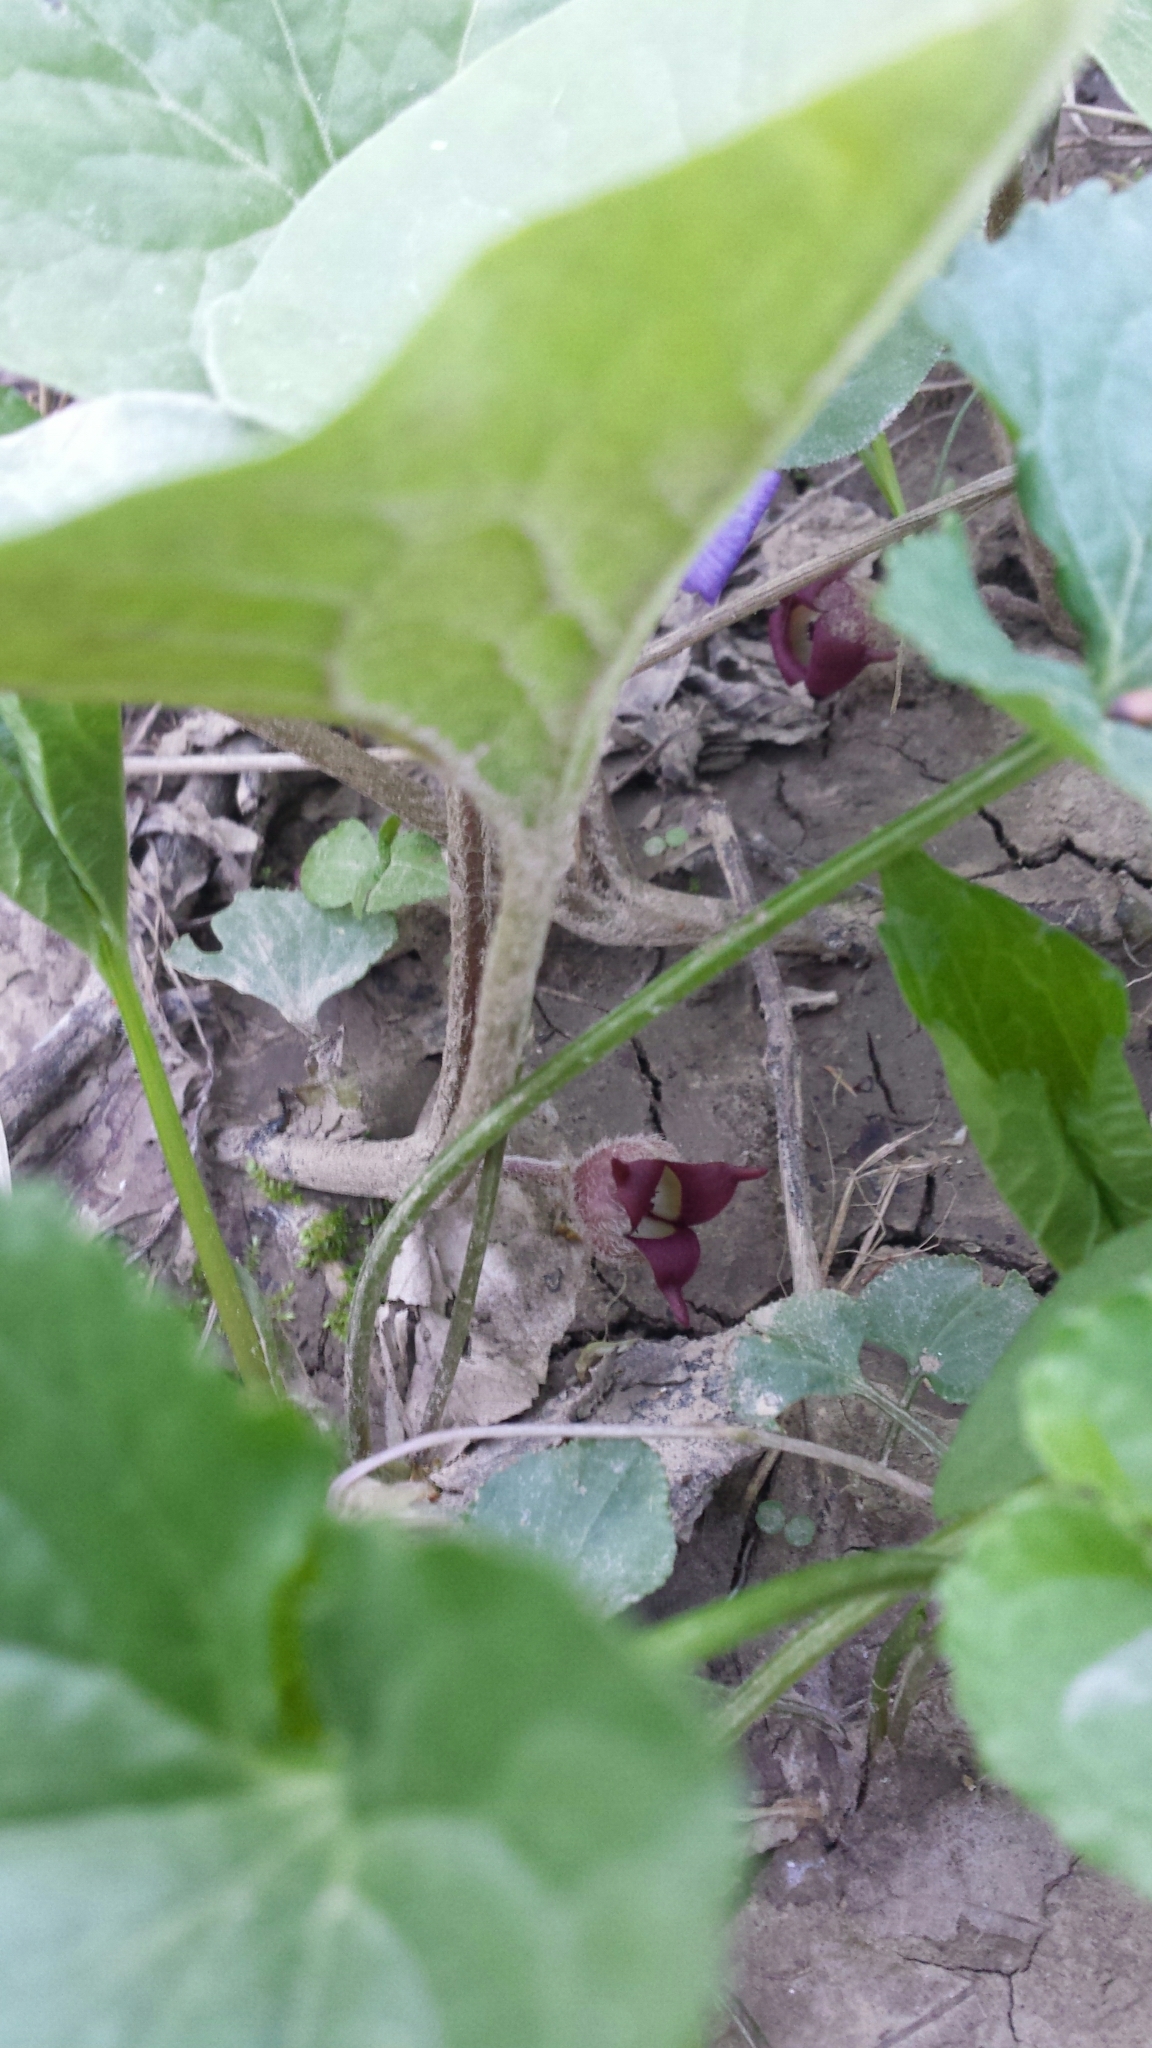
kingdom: Plantae
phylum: Tracheophyta
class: Magnoliopsida
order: Piperales
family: Aristolochiaceae
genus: Asarum
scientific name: Asarum canadense
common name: Wild ginger
